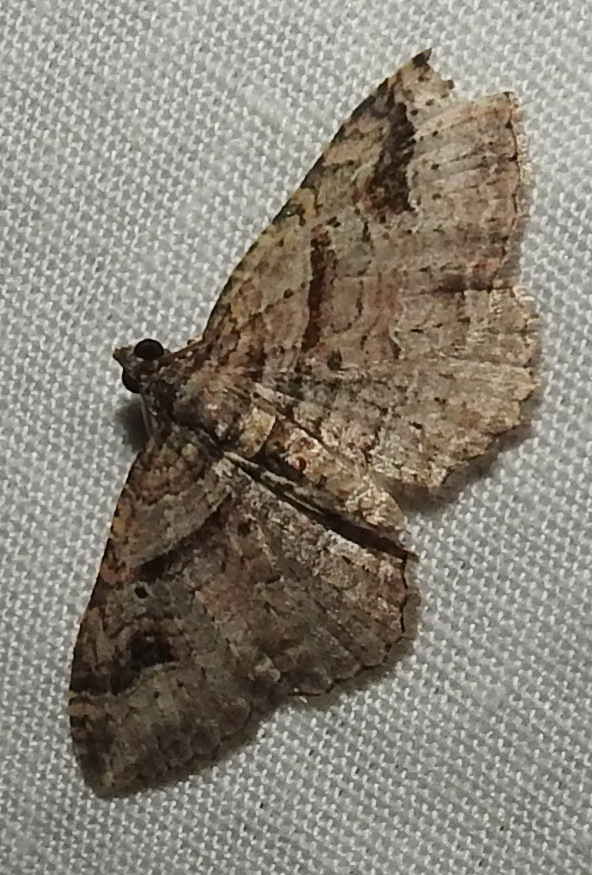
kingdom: Animalia
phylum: Arthropoda
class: Insecta
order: Lepidoptera
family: Geometridae
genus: Costaconvexa
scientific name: Costaconvexa centrostrigaria
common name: Bent-line carpet
